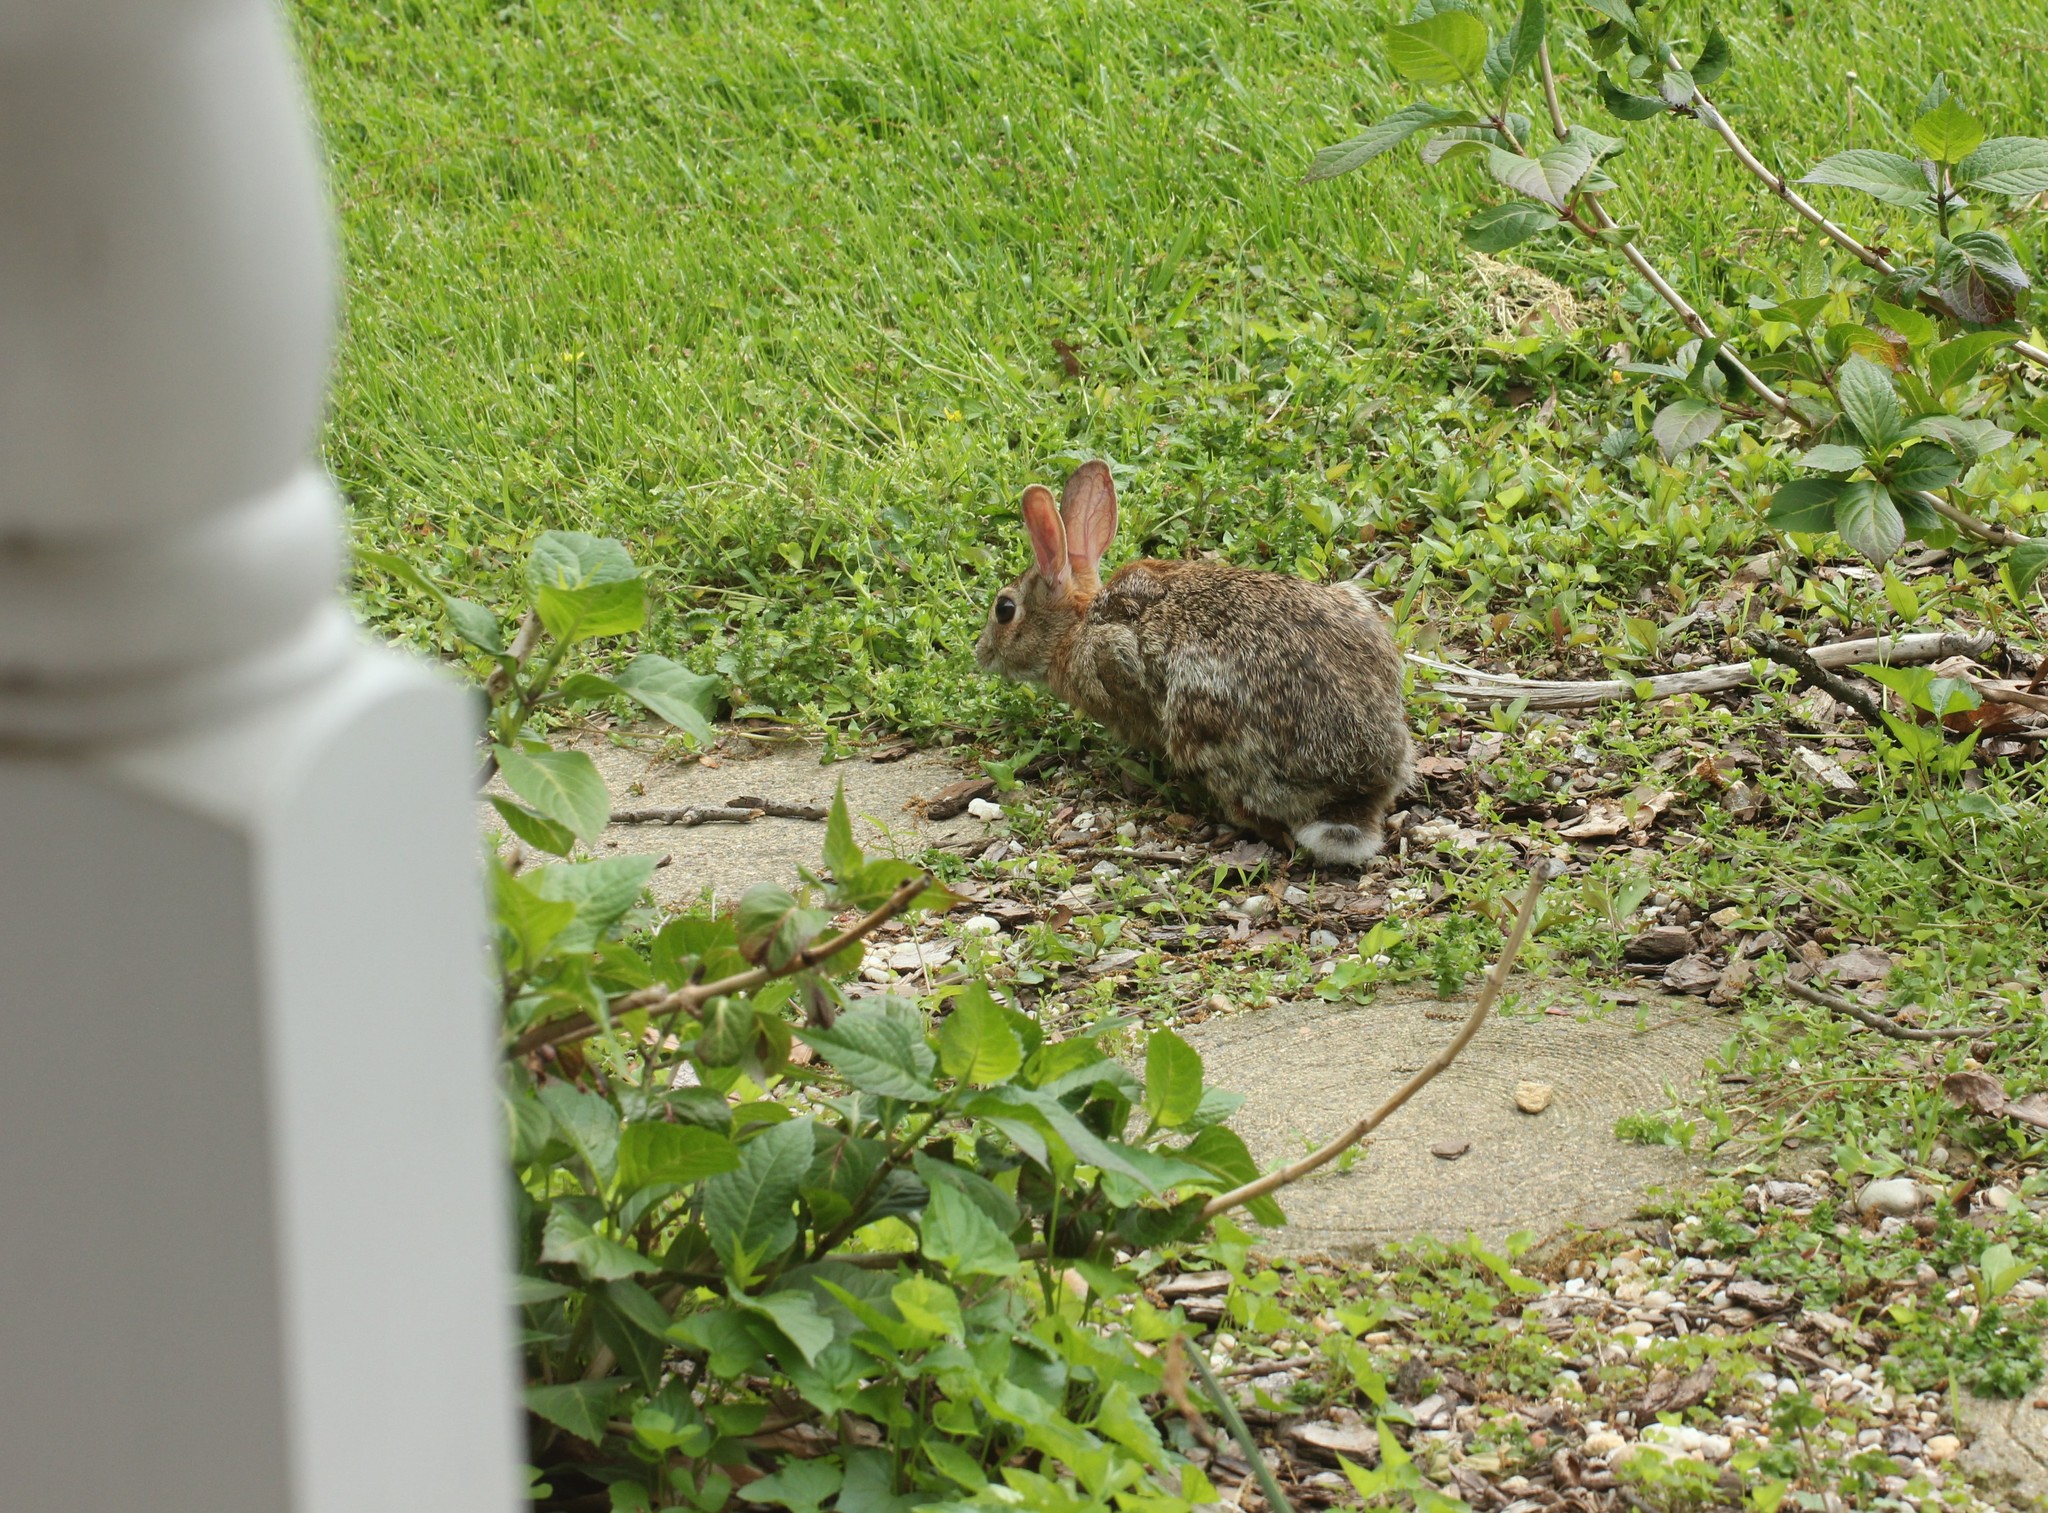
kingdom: Animalia
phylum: Chordata
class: Mammalia
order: Lagomorpha
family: Leporidae
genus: Sylvilagus
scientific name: Sylvilagus floridanus
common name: Eastern cottontail
